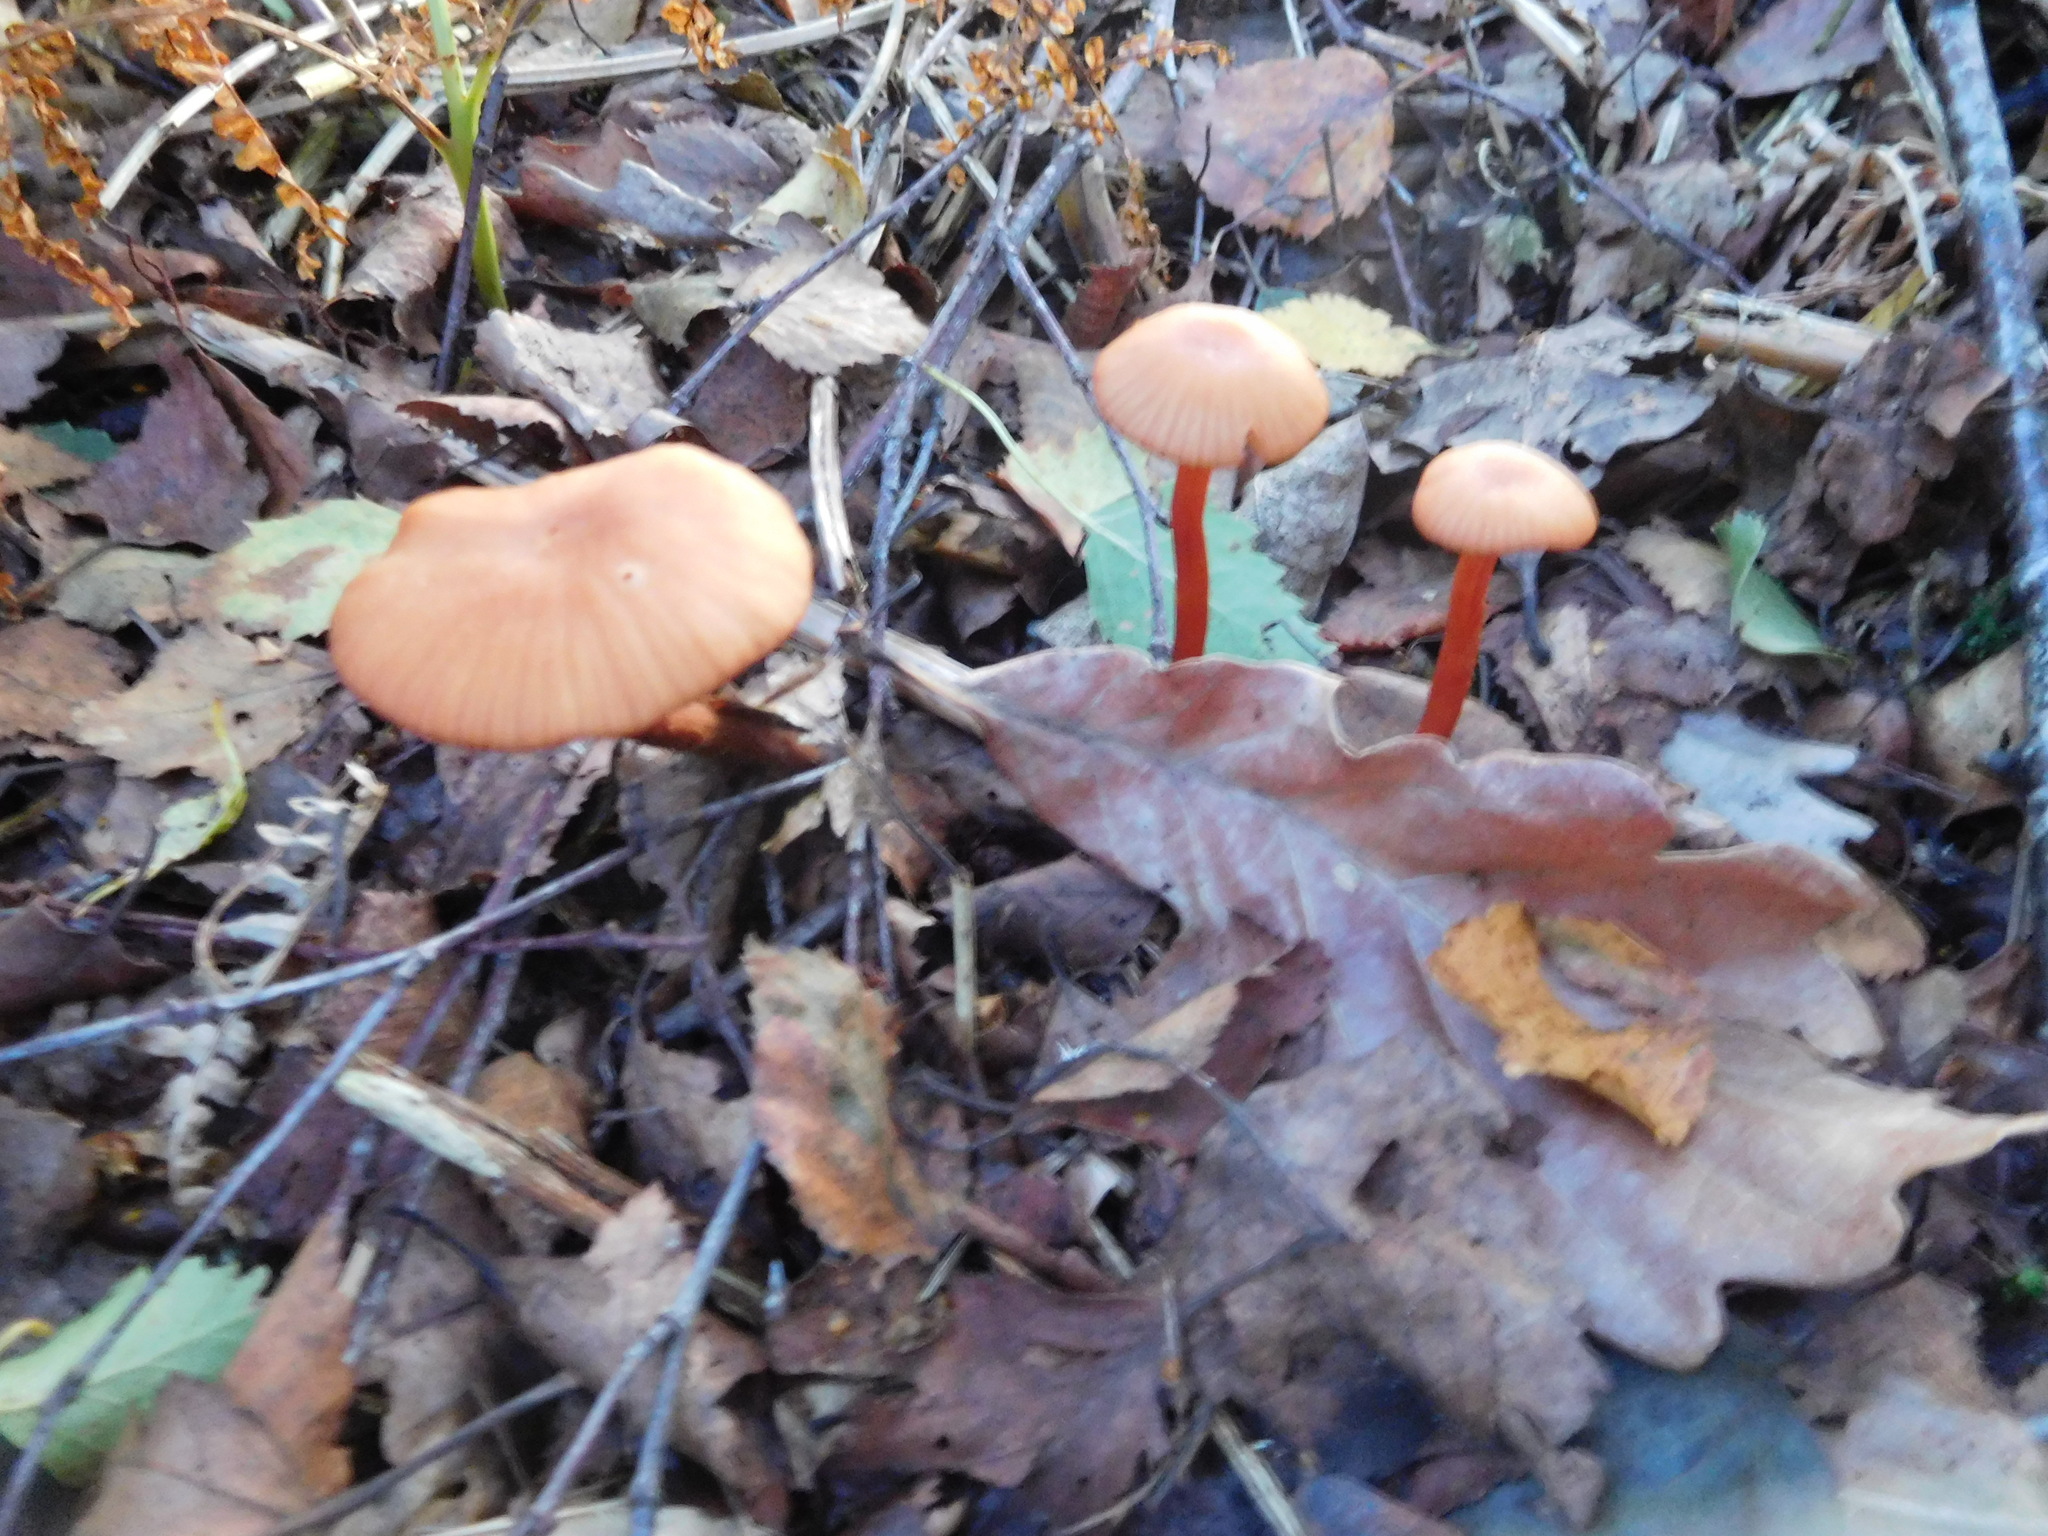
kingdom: Fungi
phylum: Basidiomycota
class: Agaricomycetes
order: Agaricales
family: Hydnangiaceae
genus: Laccaria
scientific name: Laccaria laccata
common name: Deceiver
